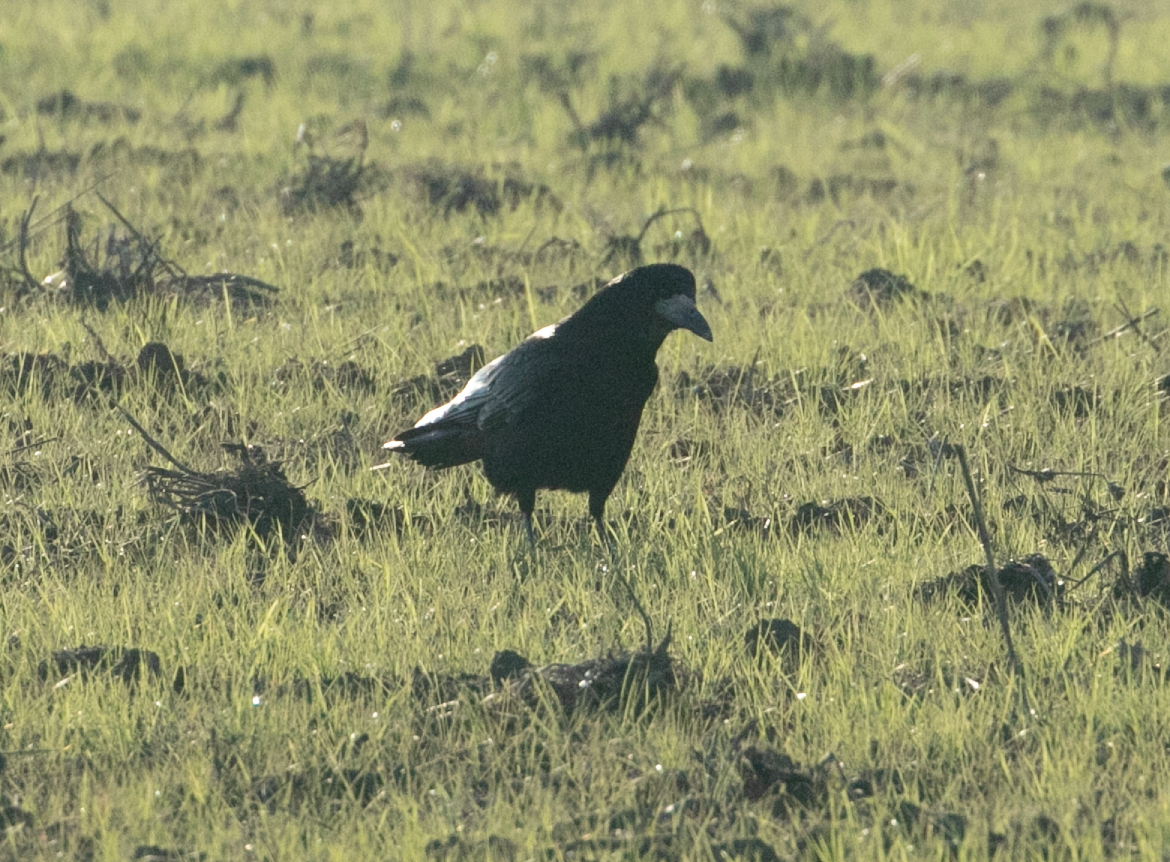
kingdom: Animalia
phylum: Chordata
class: Aves
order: Passeriformes
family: Corvidae
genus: Corvus
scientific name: Corvus frugilegus
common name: Rook
